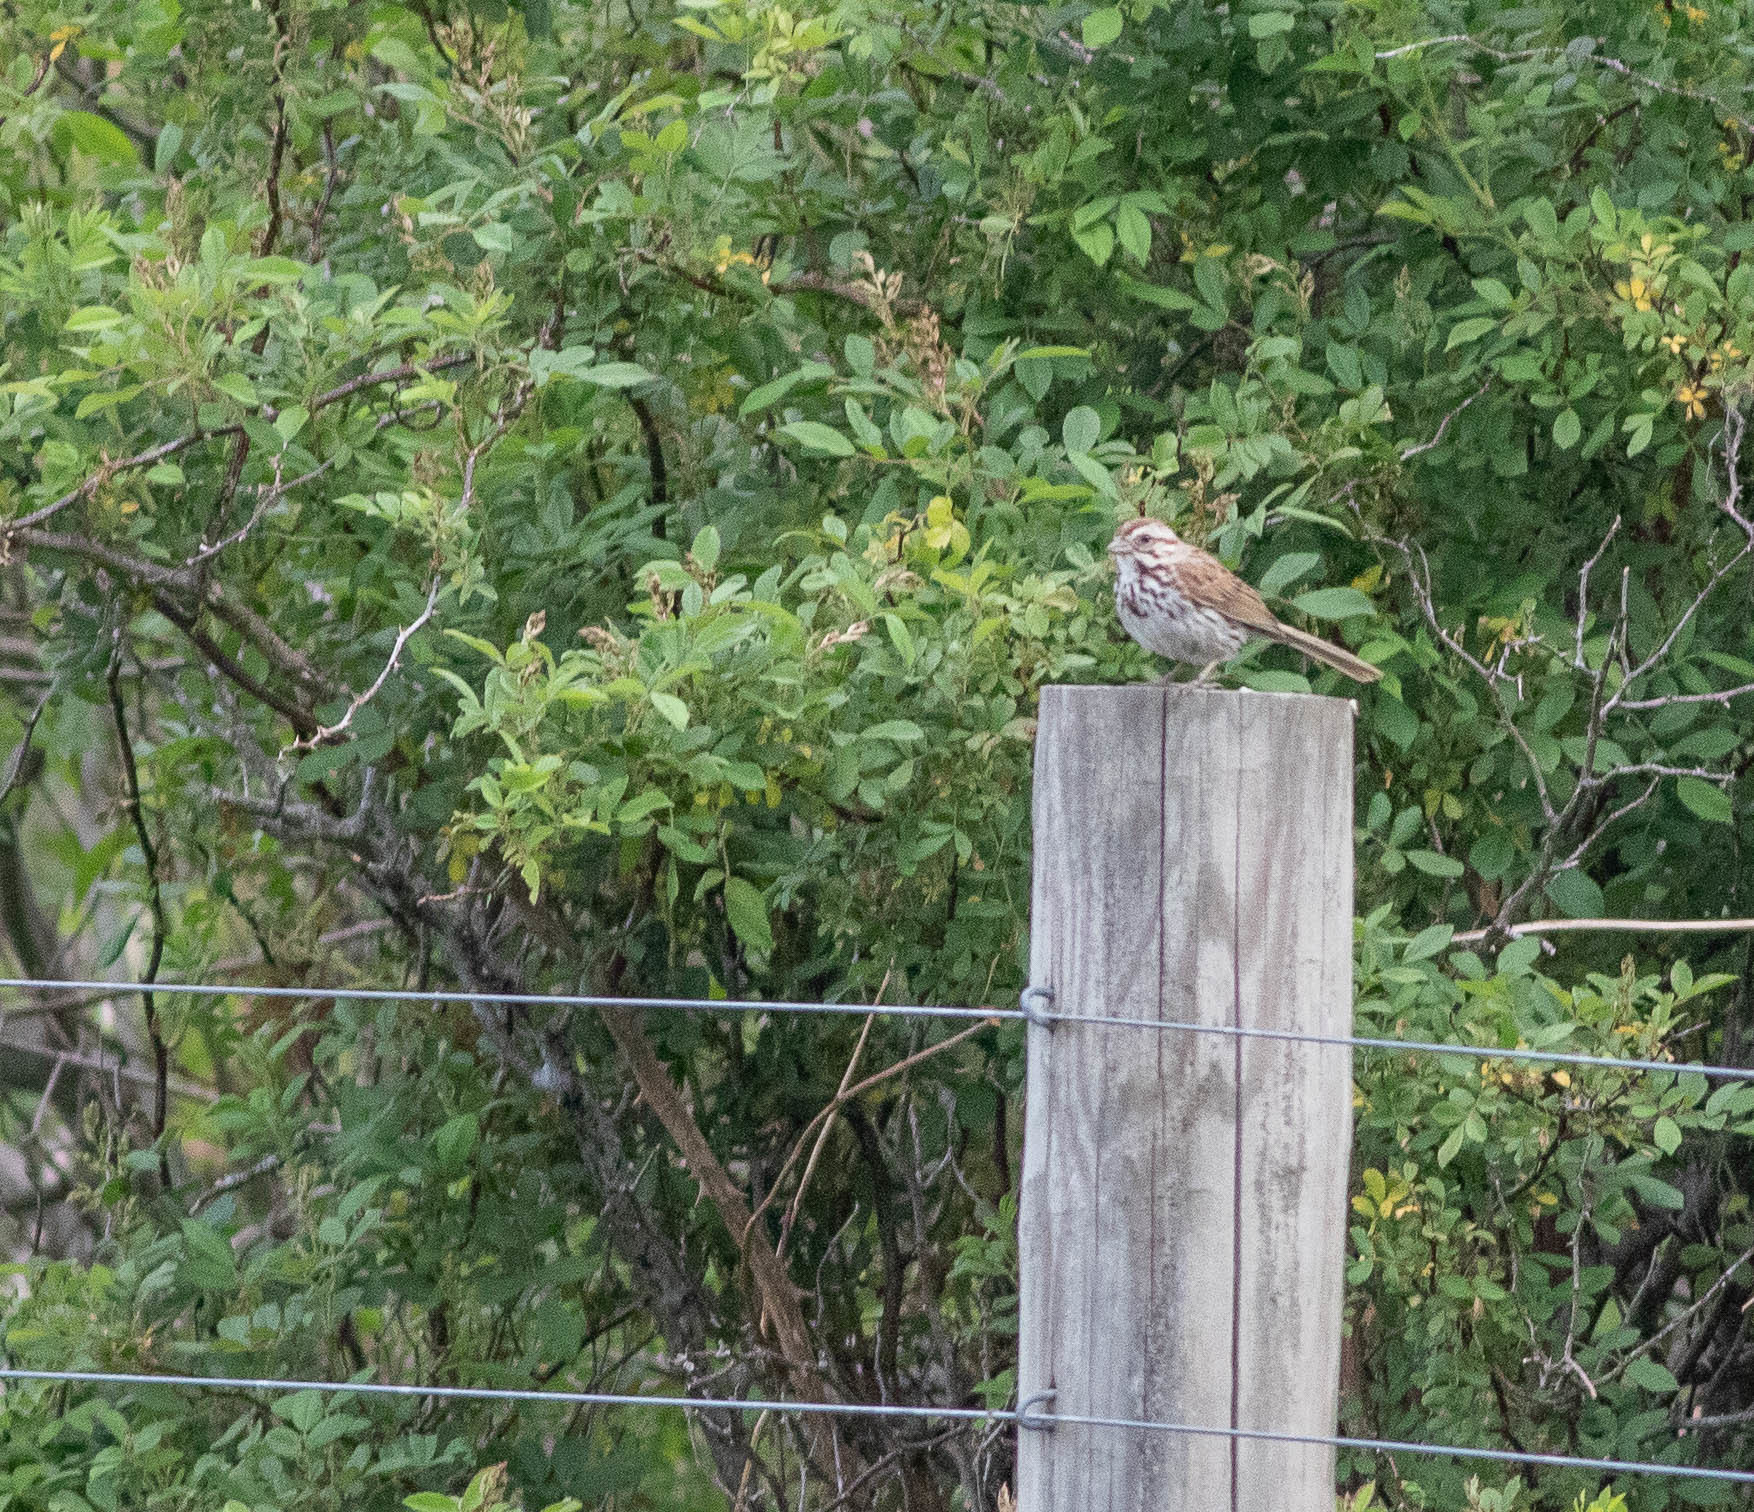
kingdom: Animalia
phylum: Chordata
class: Aves
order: Passeriformes
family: Passerellidae
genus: Melospiza
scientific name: Melospiza melodia
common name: Song sparrow
